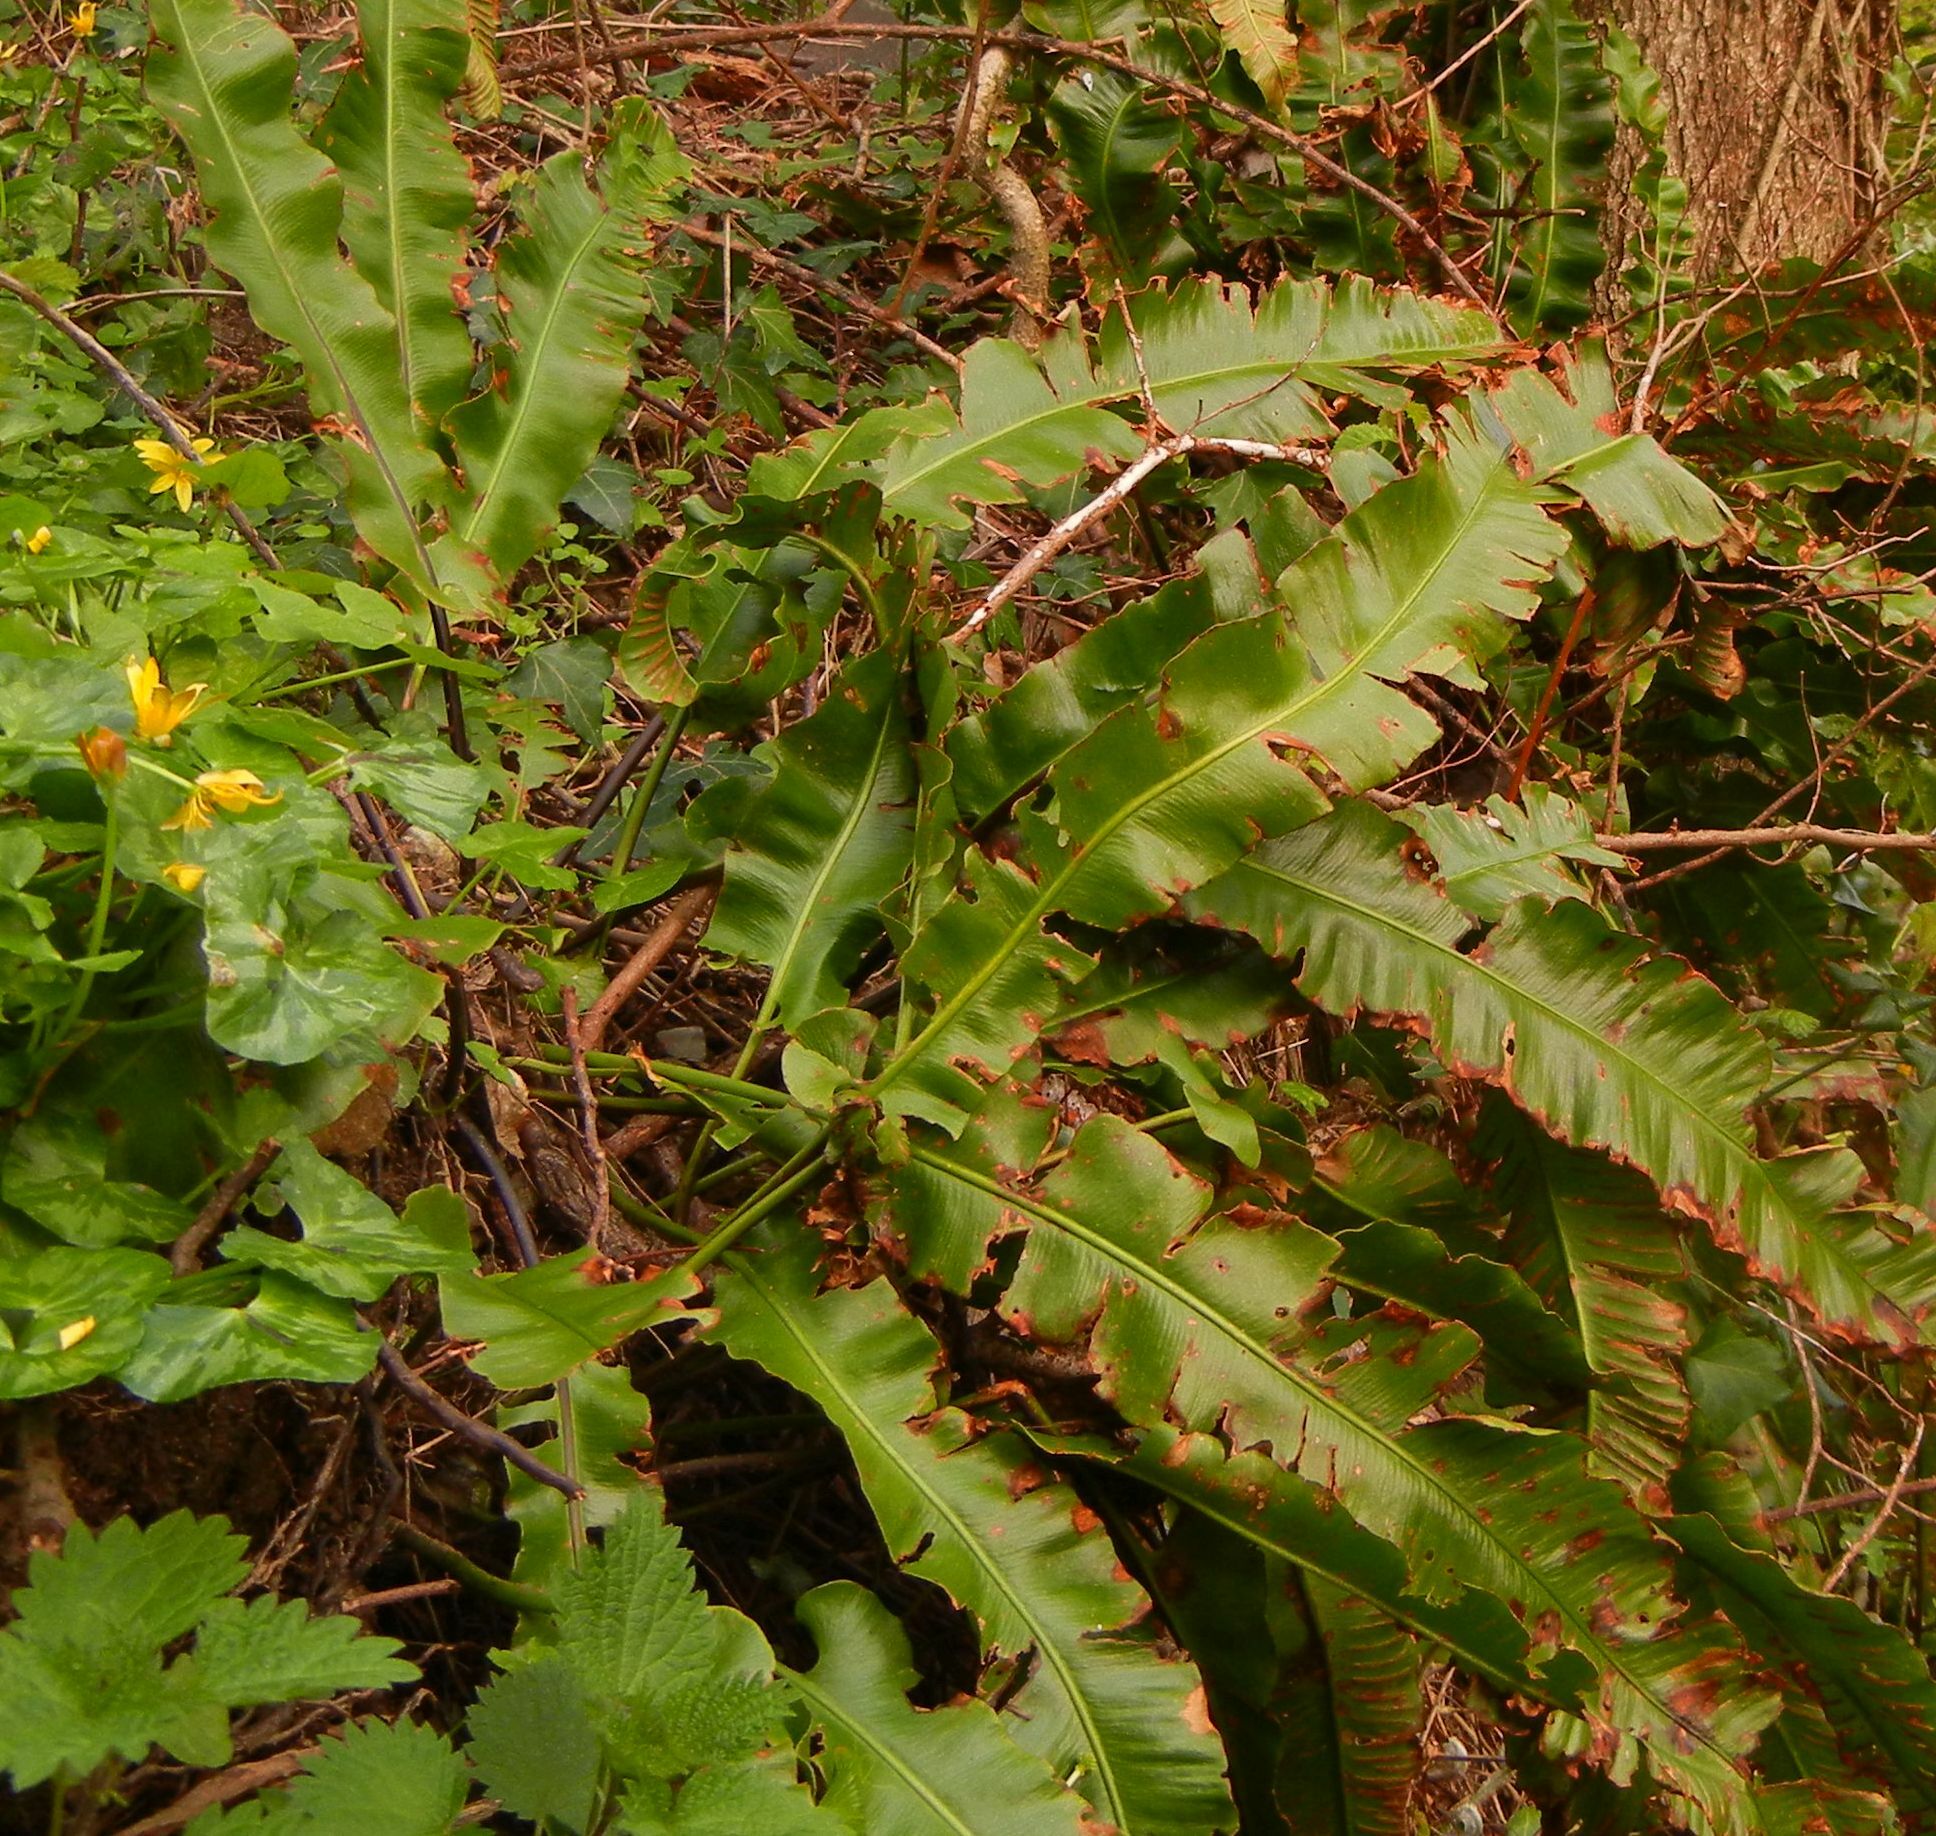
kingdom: Plantae
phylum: Tracheophyta
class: Polypodiopsida
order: Polypodiales
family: Aspleniaceae
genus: Asplenium
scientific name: Asplenium scolopendrium
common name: Hart's-tongue fern
